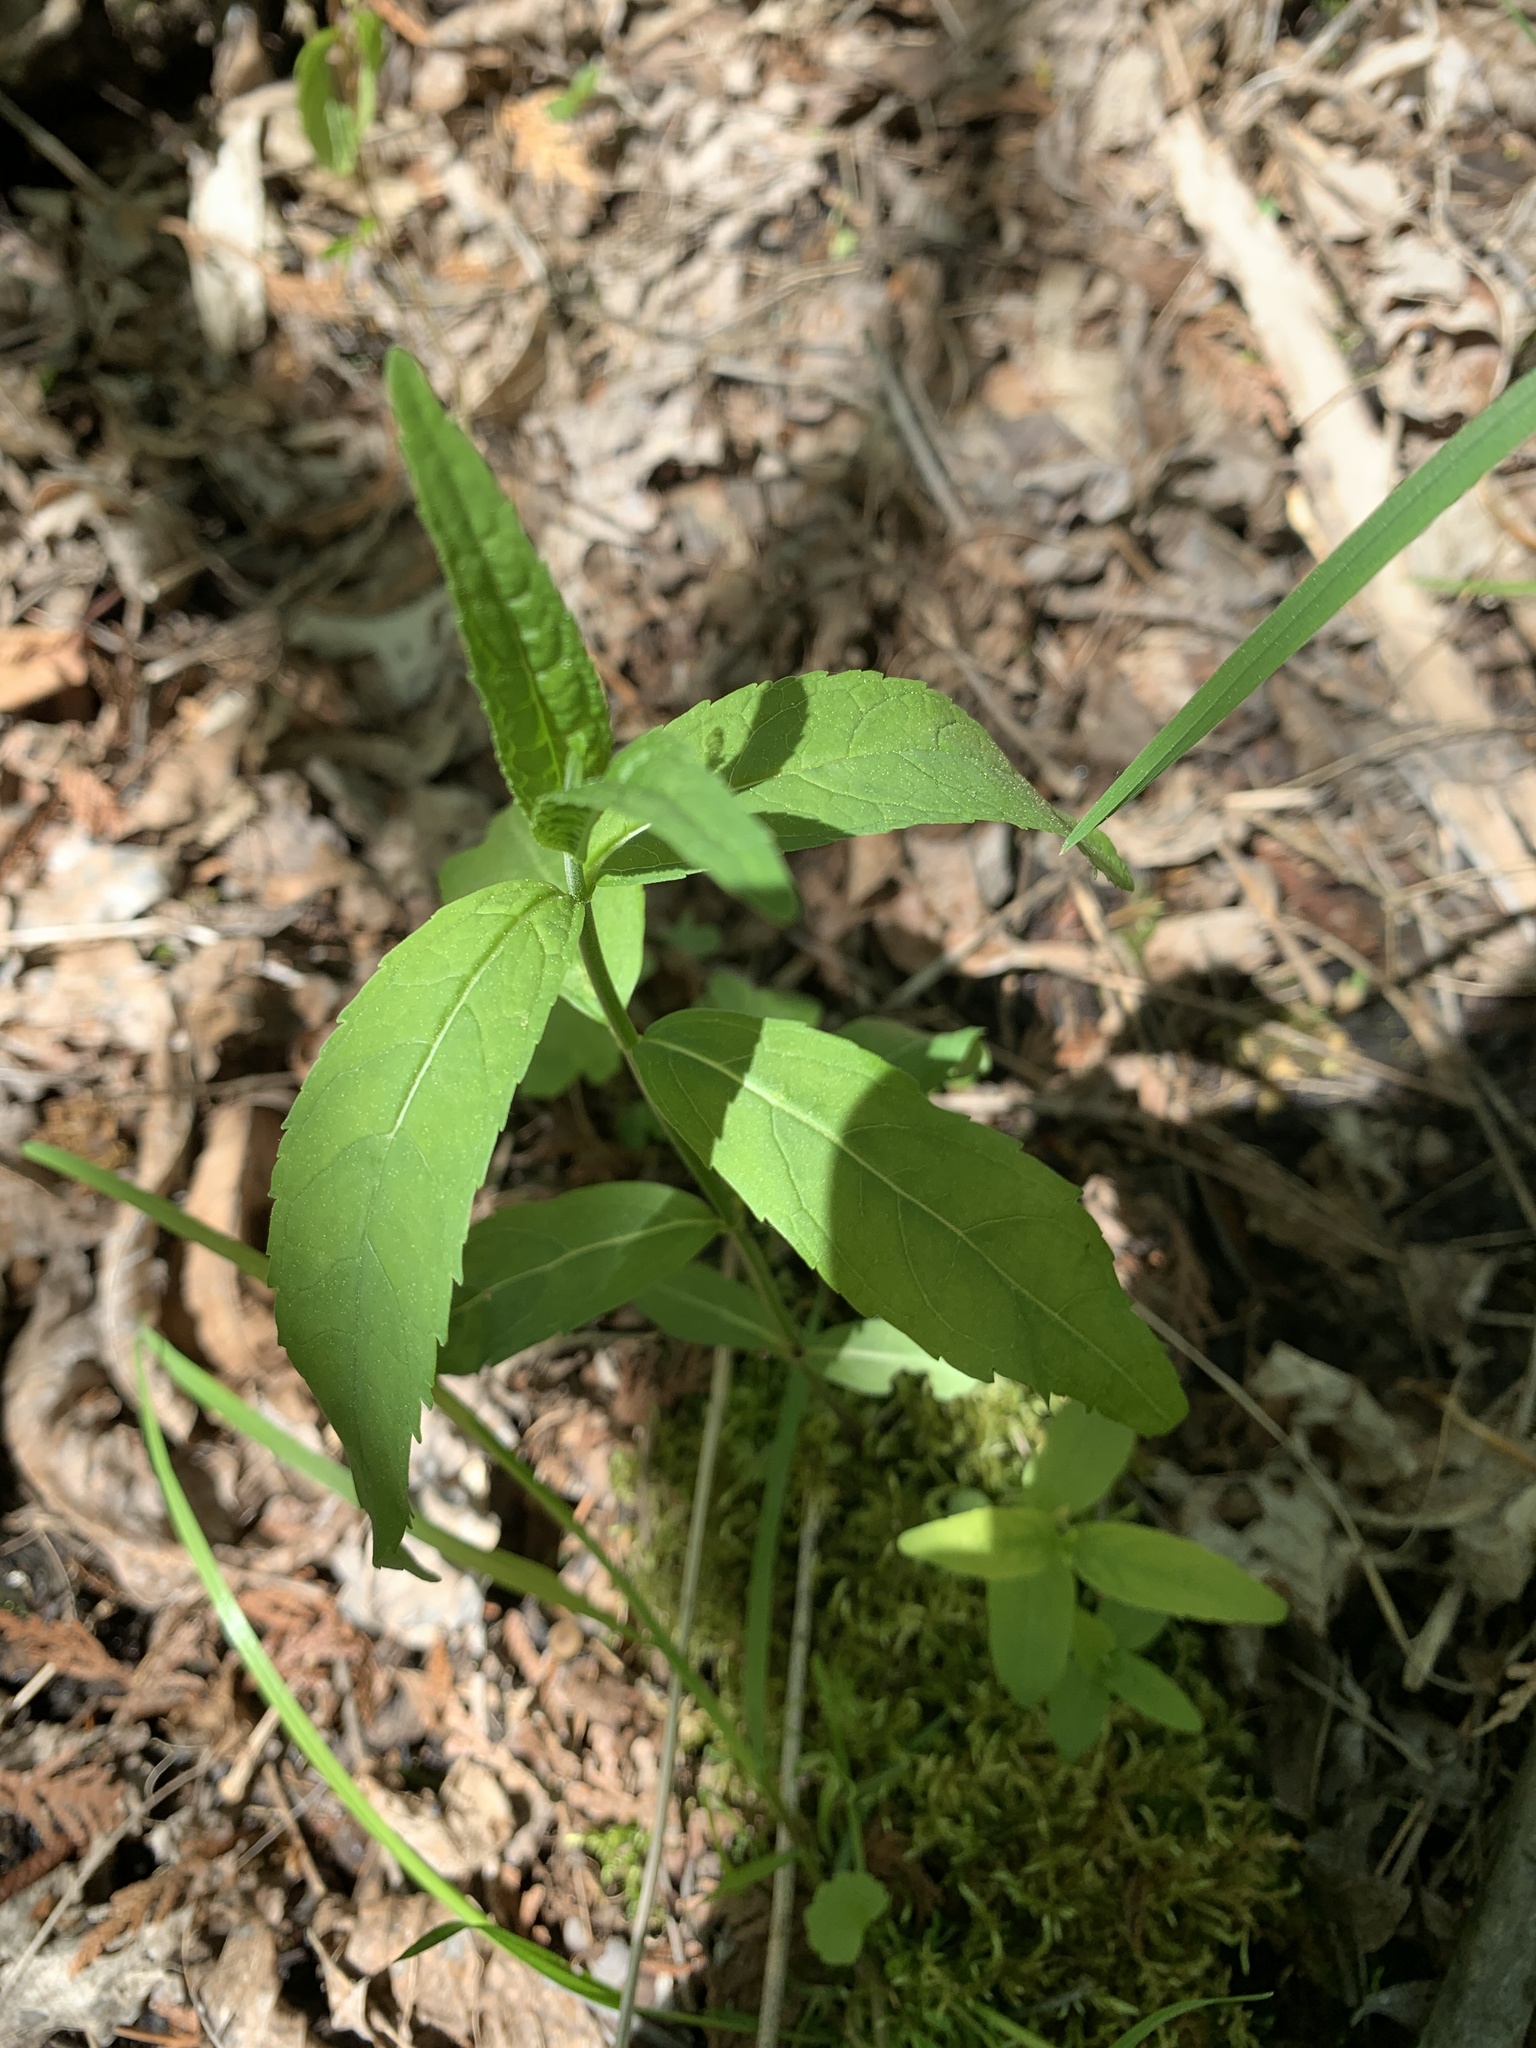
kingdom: Plantae
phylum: Tracheophyta
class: Magnoliopsida
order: Lamiales
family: Plantaginaceae
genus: Chelone
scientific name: Chelone glabra
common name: Snakehead
